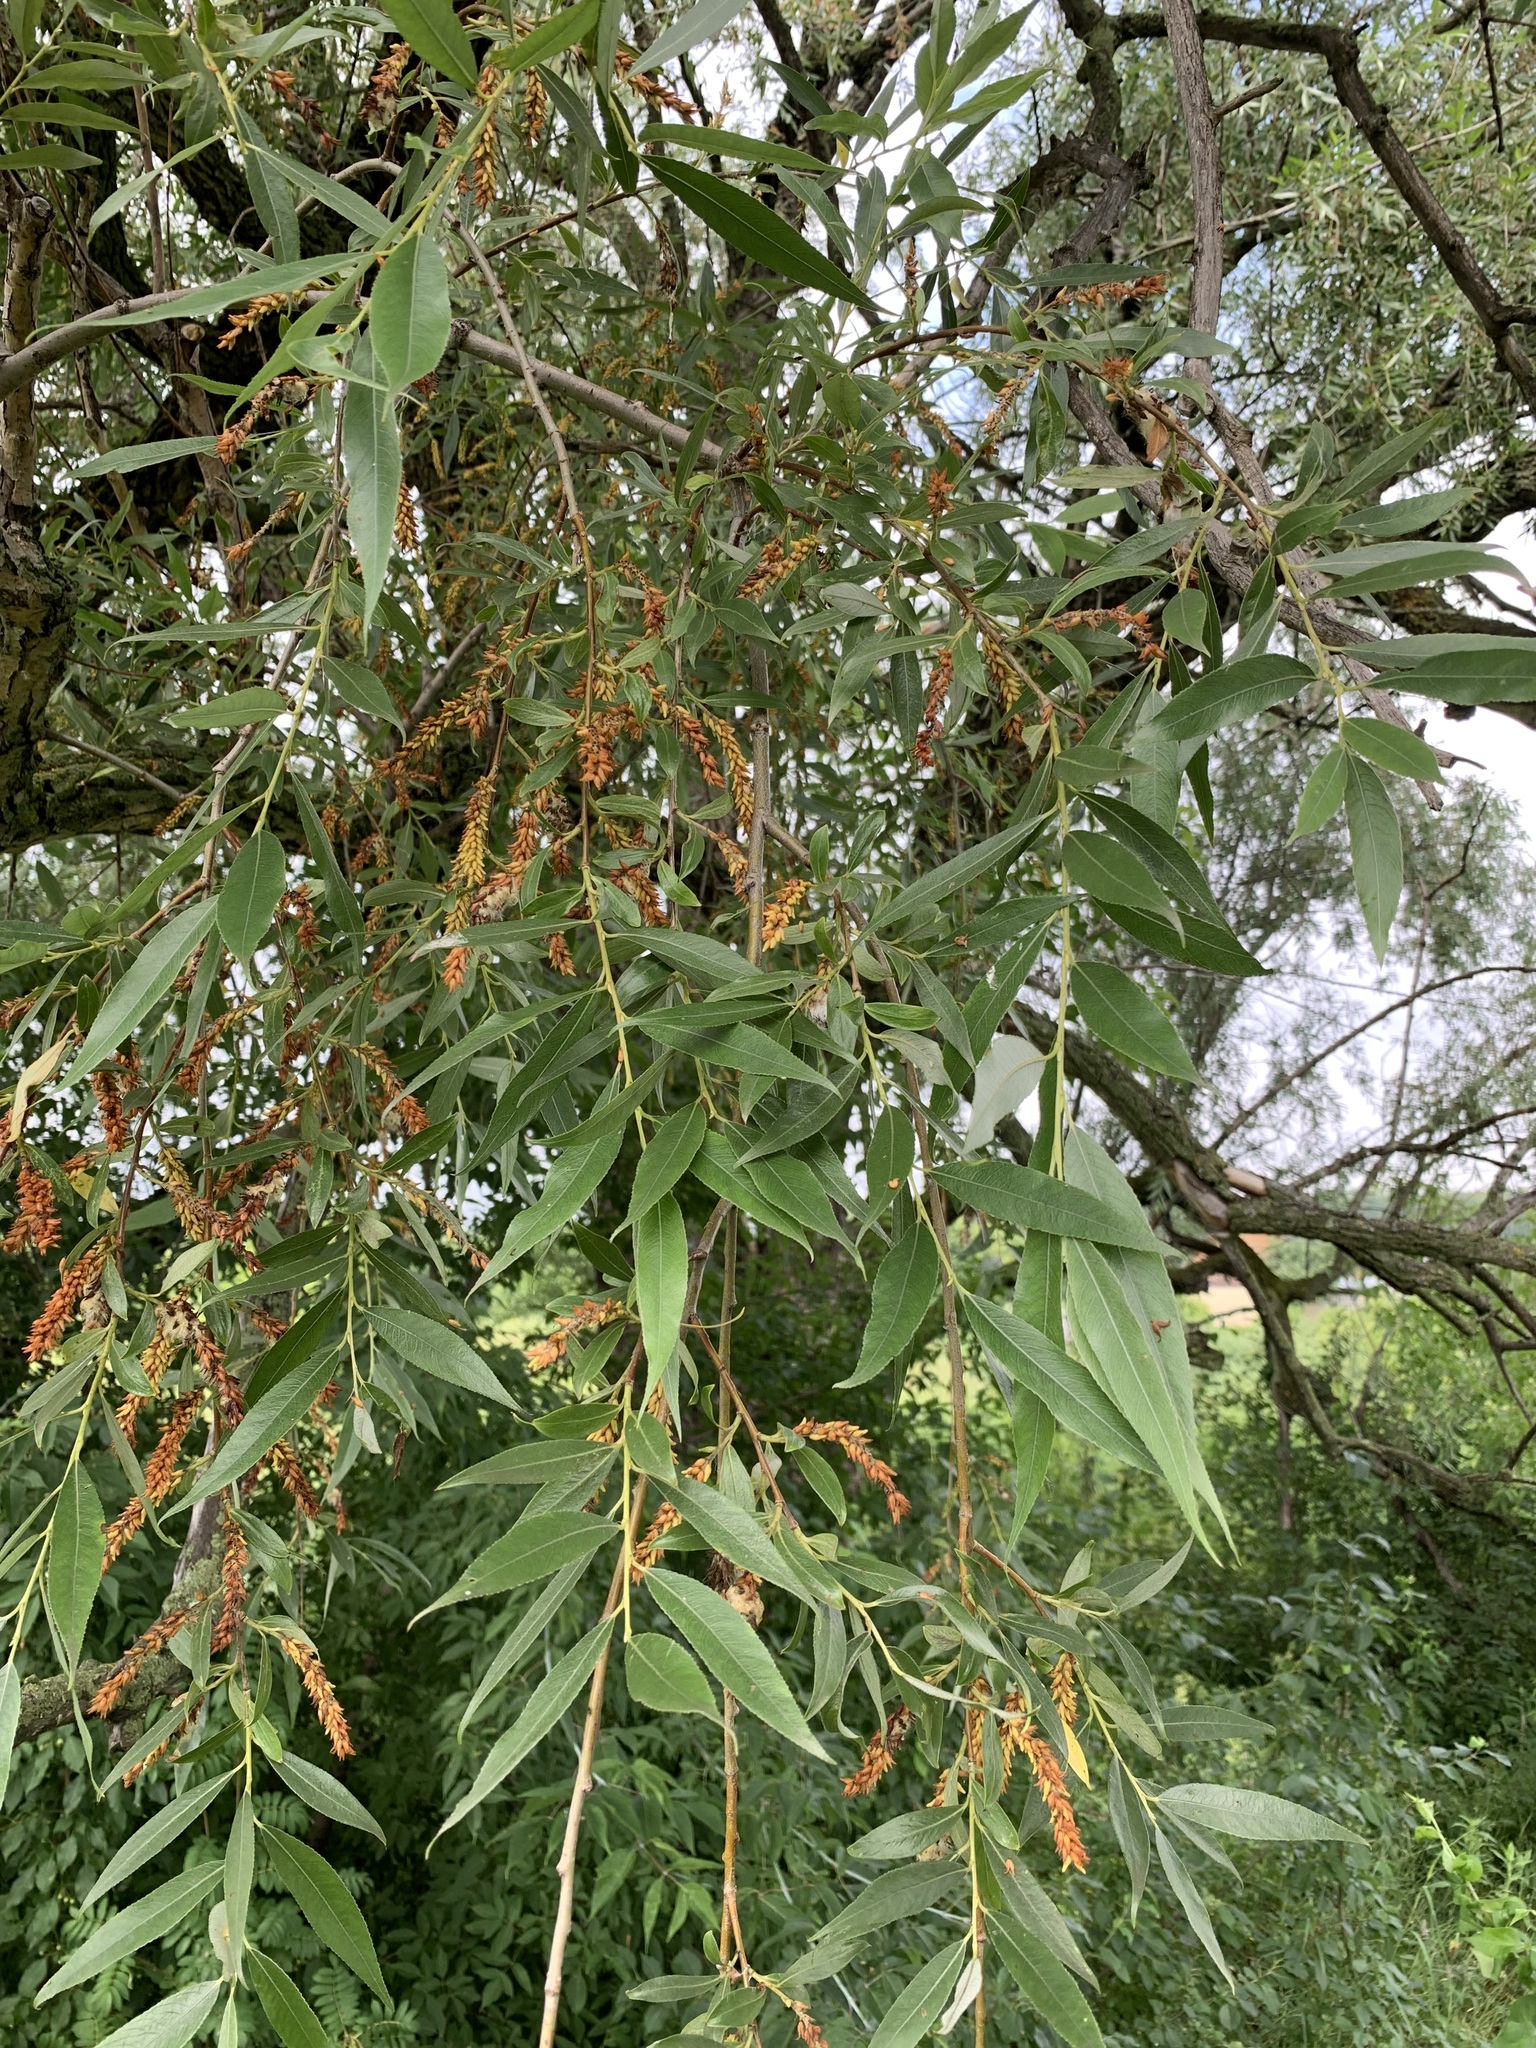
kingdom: Plantae
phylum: Tracheophyta
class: Magnoliopsida
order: Malpighiales
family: Salicaceae
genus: Salix
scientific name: Salix alba
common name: White willow
